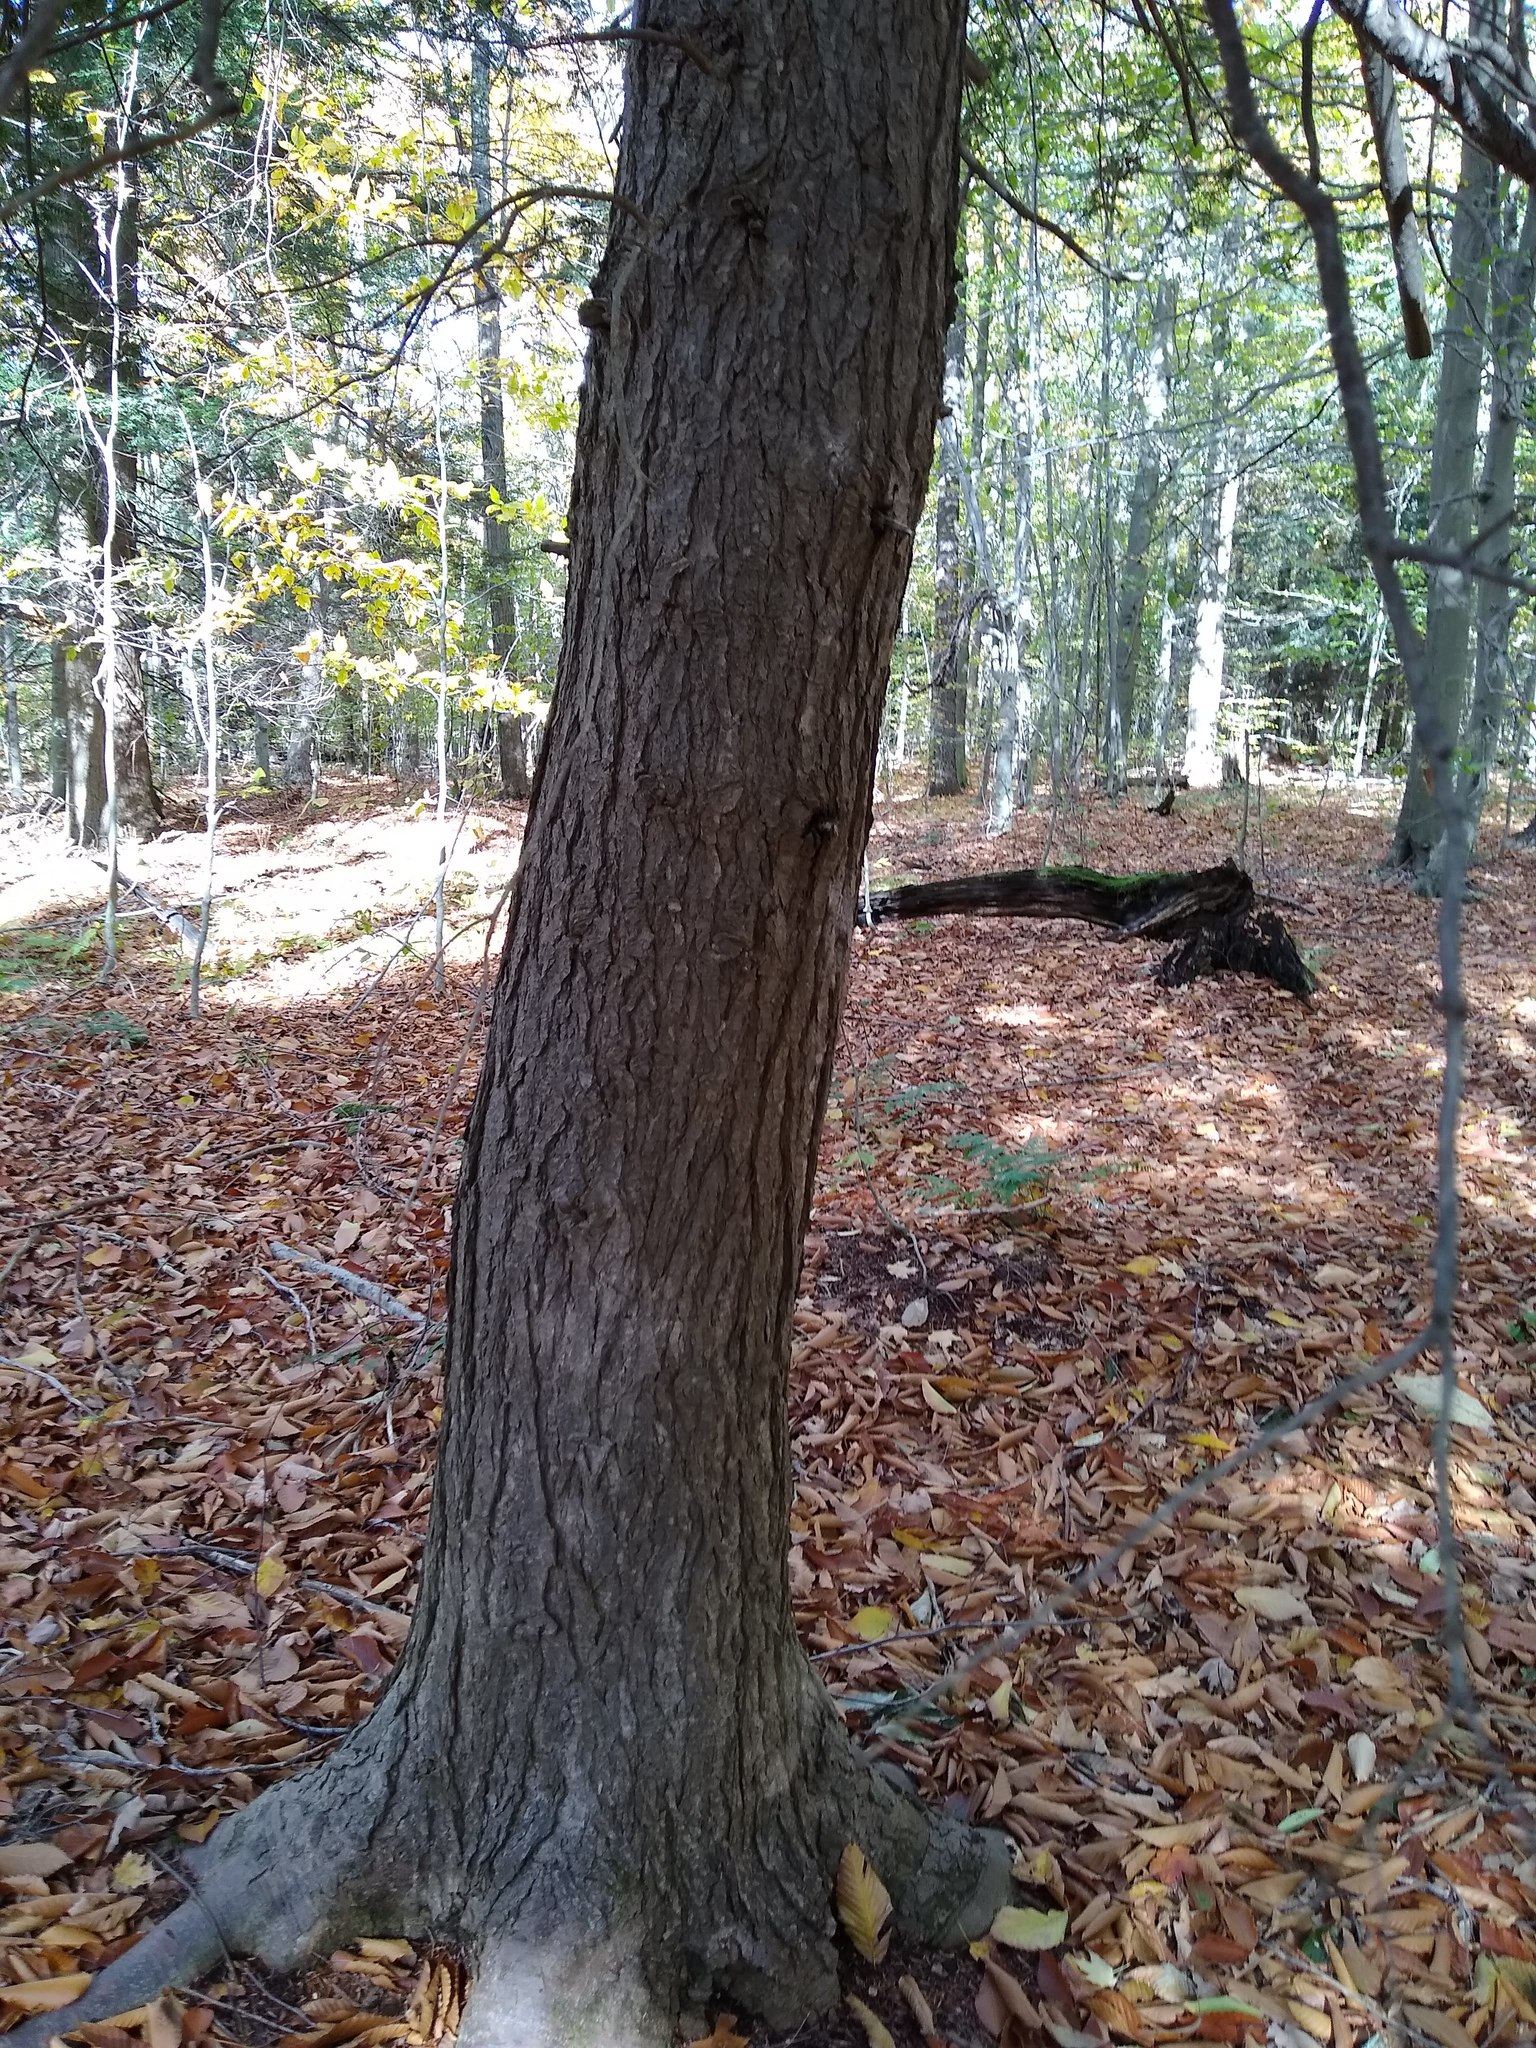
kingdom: Plantae
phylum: Tracheophyta
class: Pinopsida
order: Pinales
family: Pinaceae
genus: Tsuga
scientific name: Tsuga canadensis
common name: Eastern hemlock
